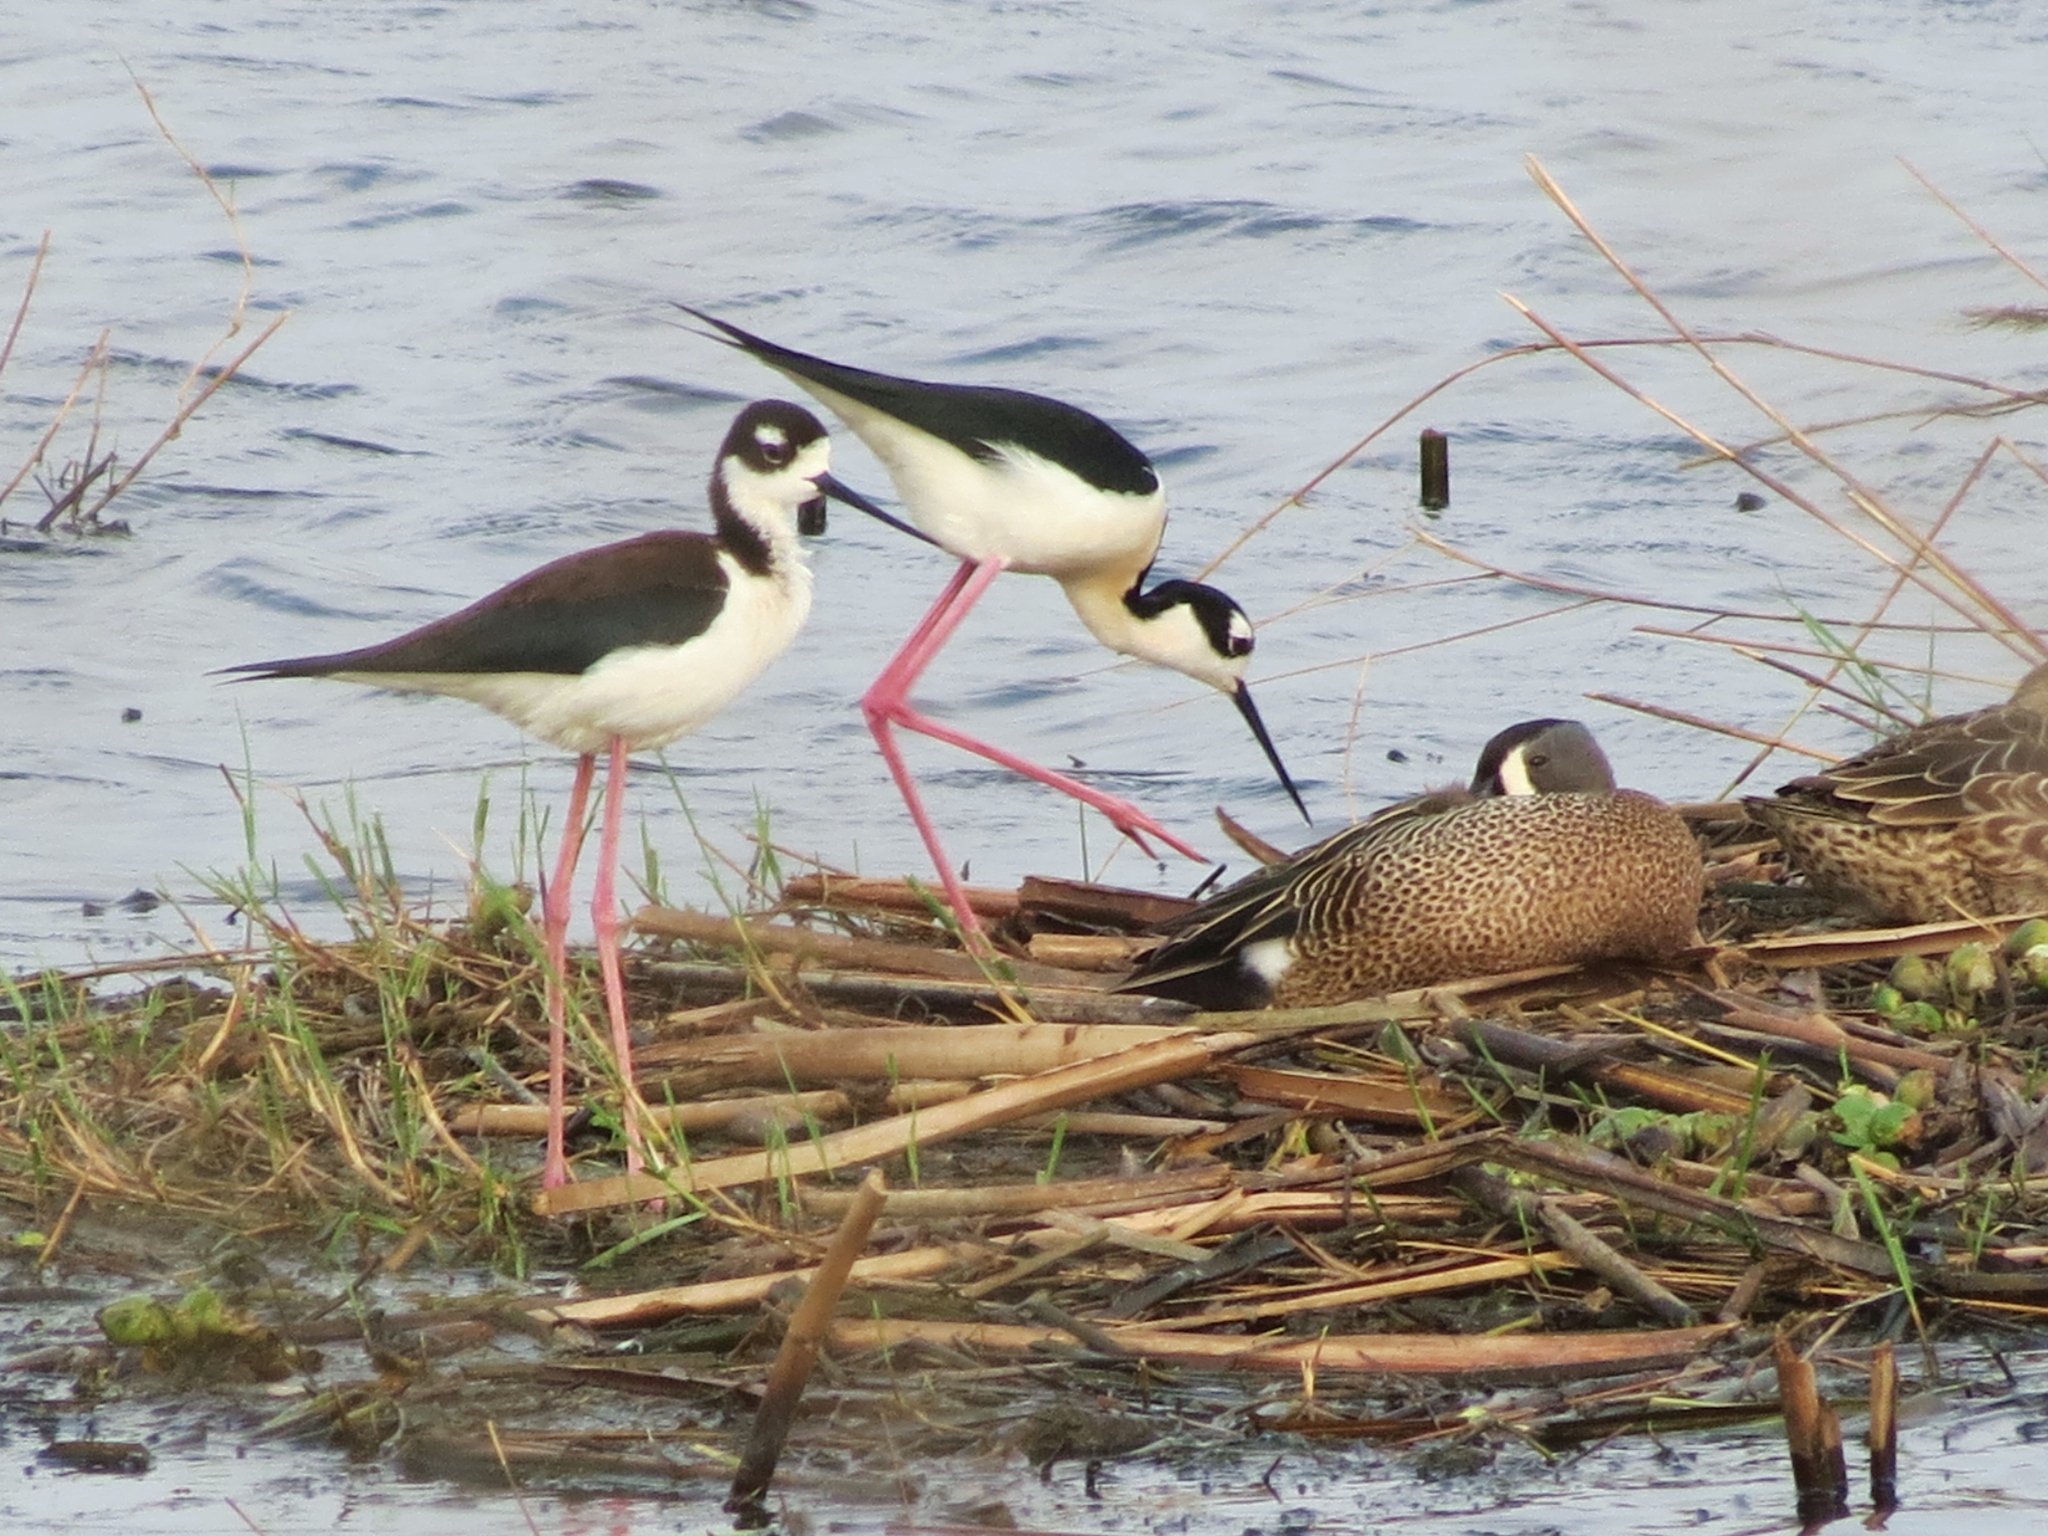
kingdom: Animalia
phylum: Chordata
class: Aves
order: Charadriiformes
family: Recurvirostridae
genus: Himantopus
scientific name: Himantopus mexicanus
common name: Black-necked stilt
